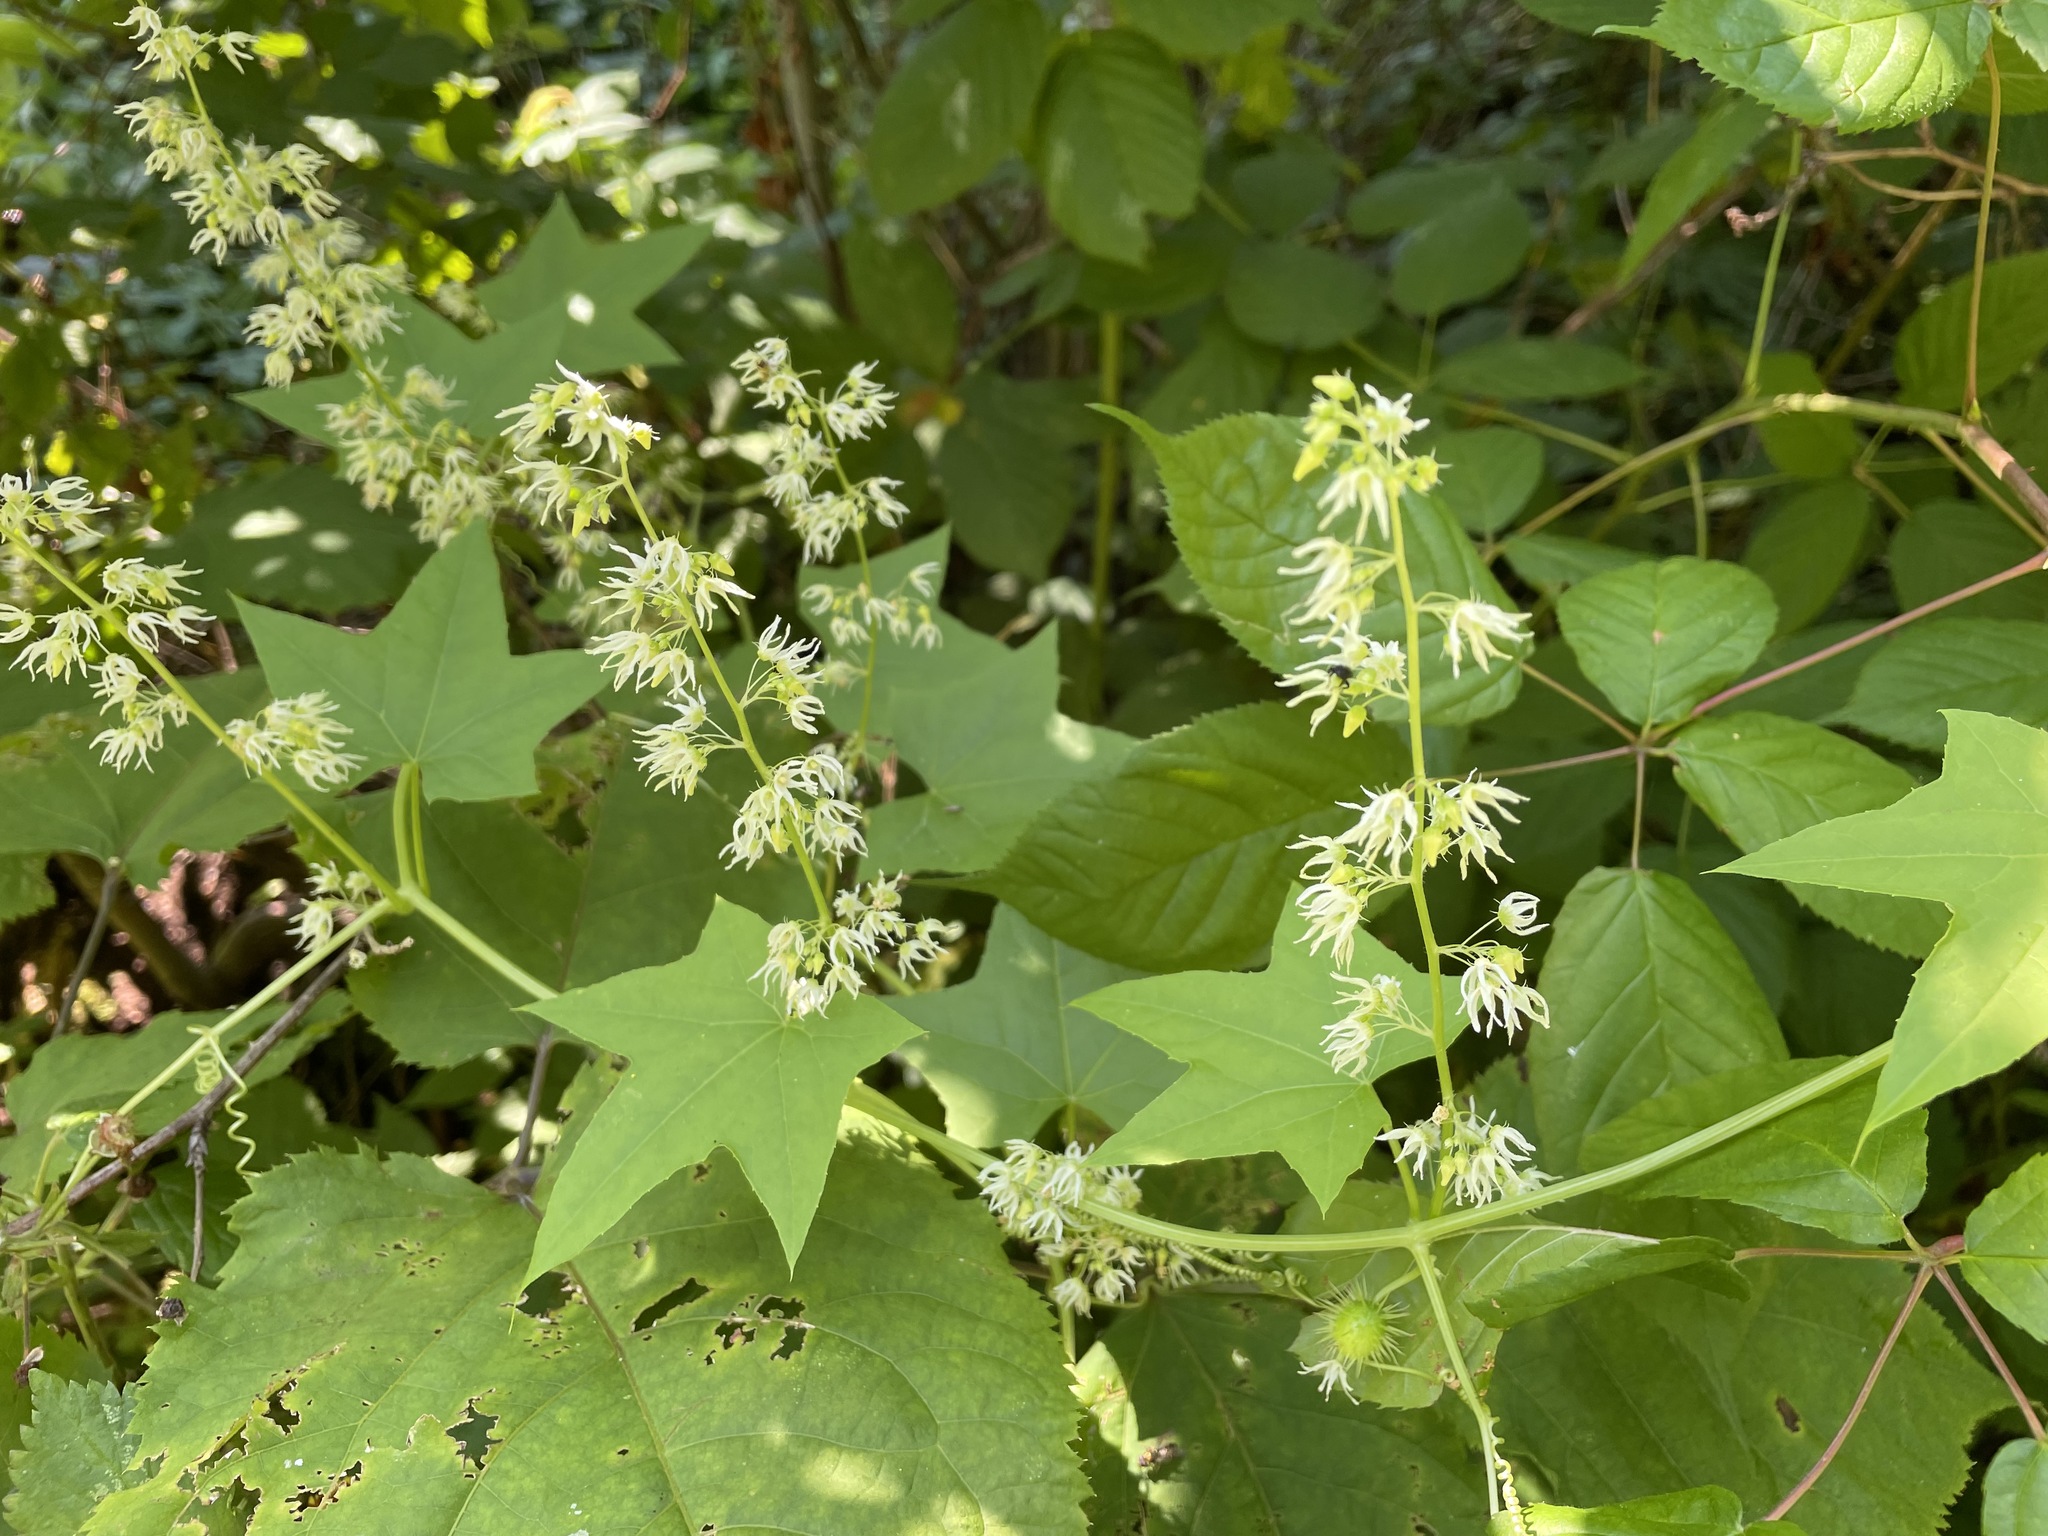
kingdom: Plantae
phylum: Tracheophyta
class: Magnoliopsida
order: Cucurbitales
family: Cucurbitaceae
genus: Echinocystis
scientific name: Echinocystis lobata
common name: Wild cucumber
